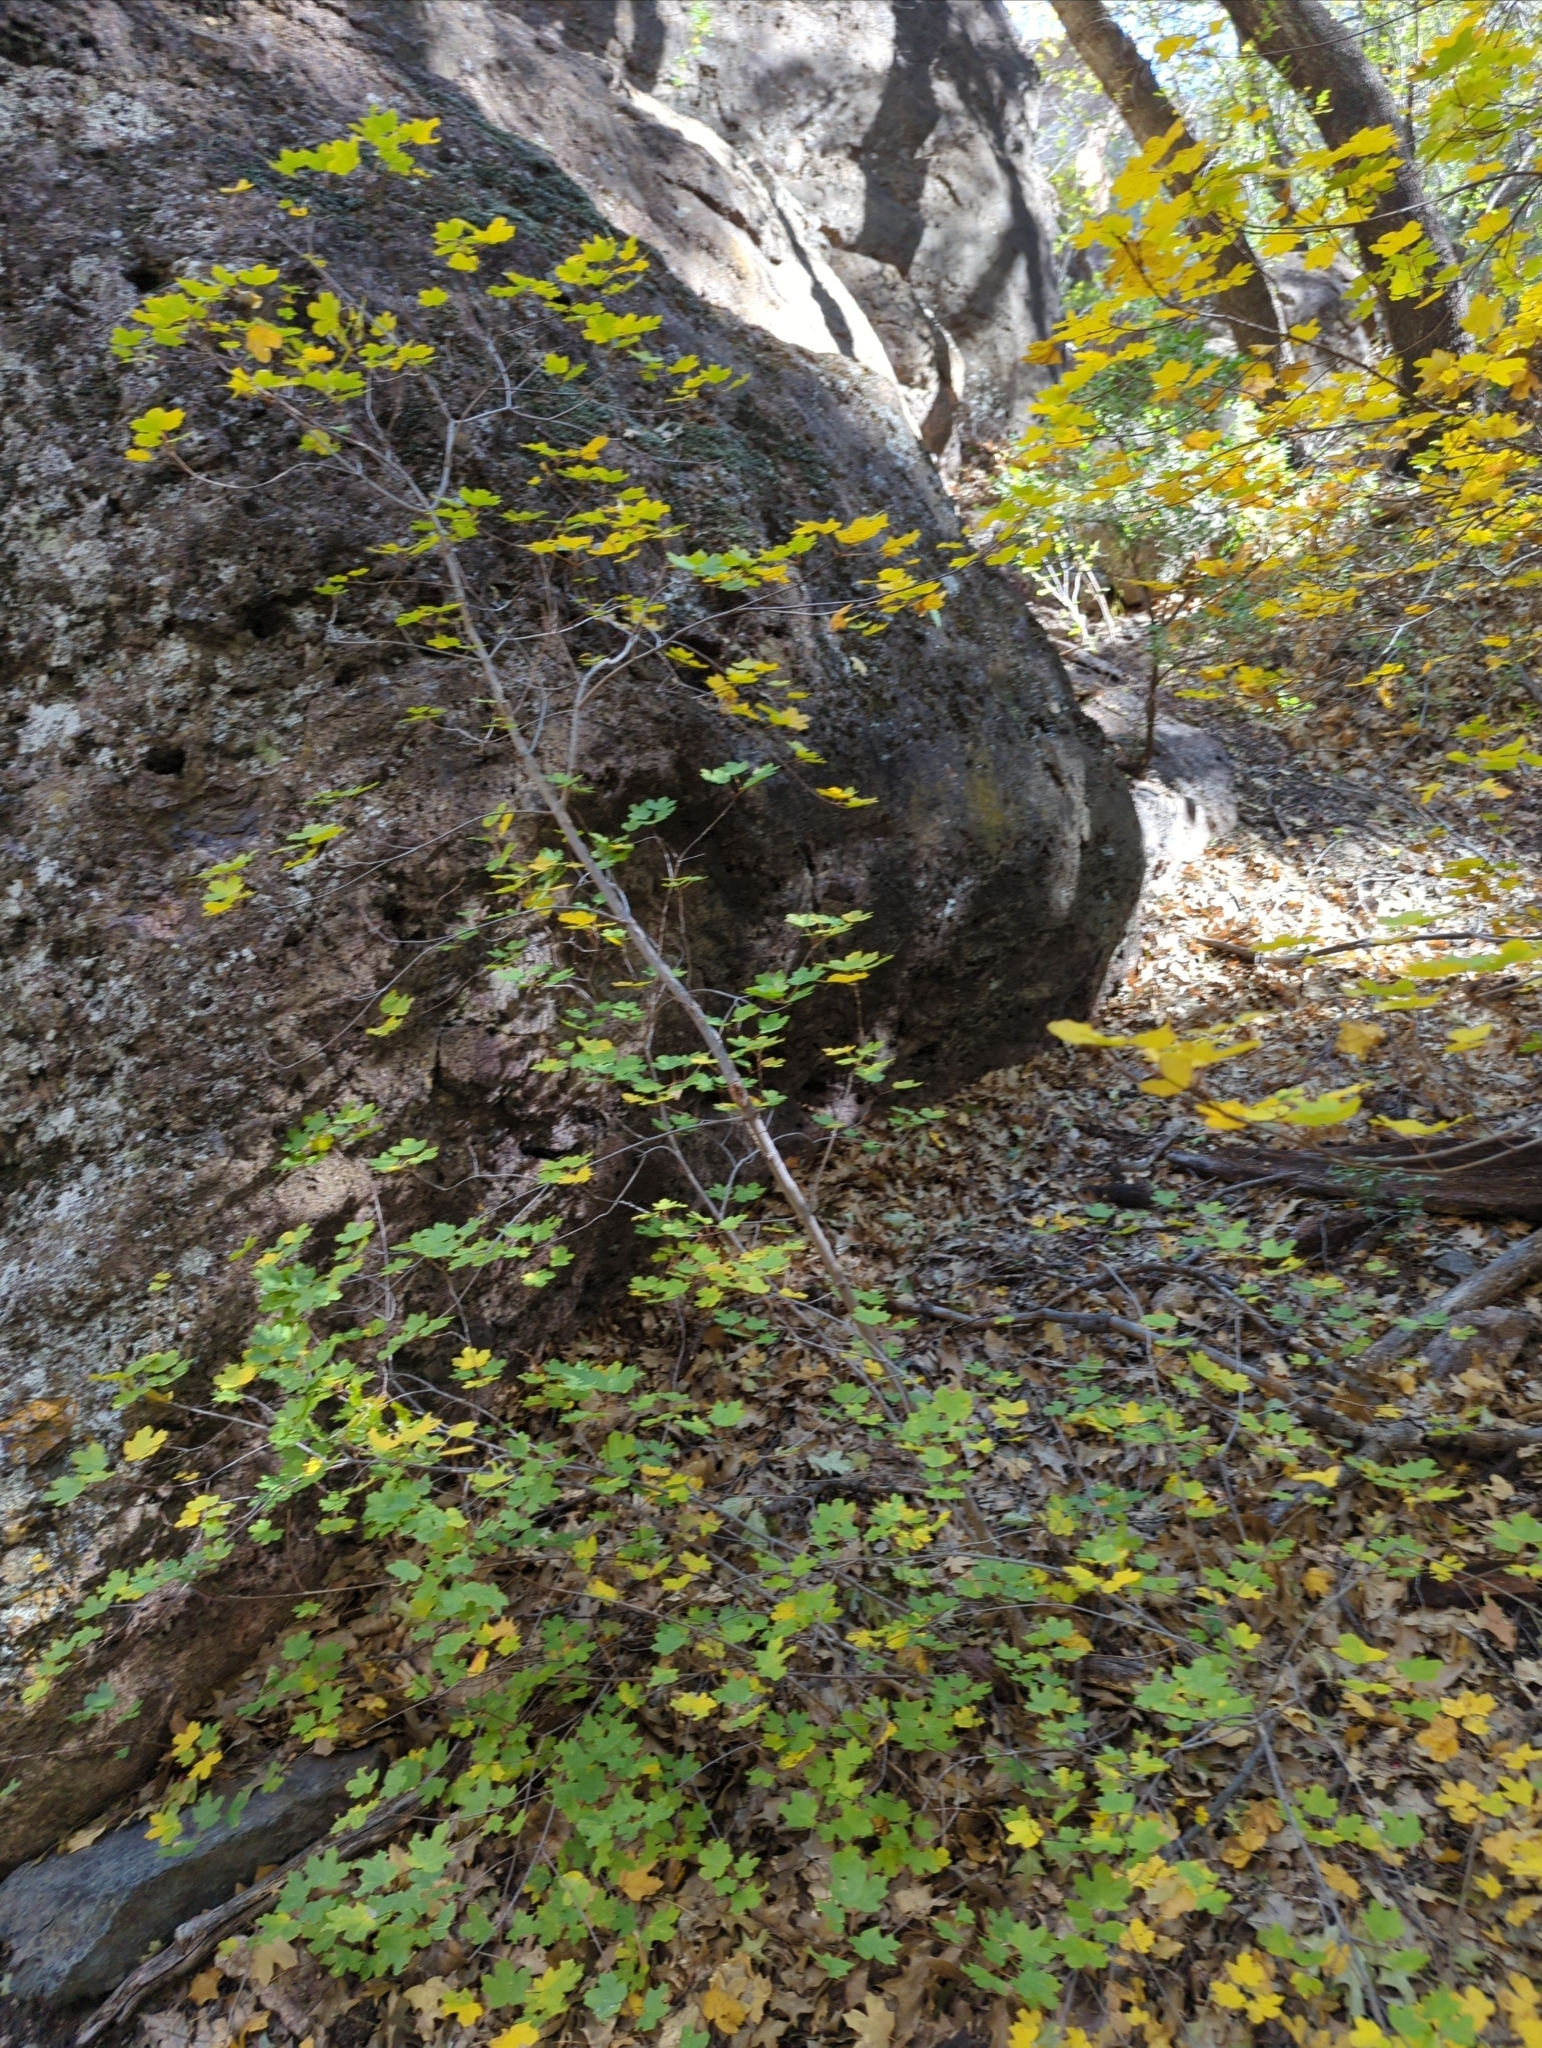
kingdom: Plantae
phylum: Tracheophyta
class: Magnoliopsida
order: Sapindales
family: Sapindaceae
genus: Acer
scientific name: Acer grandidentatum
